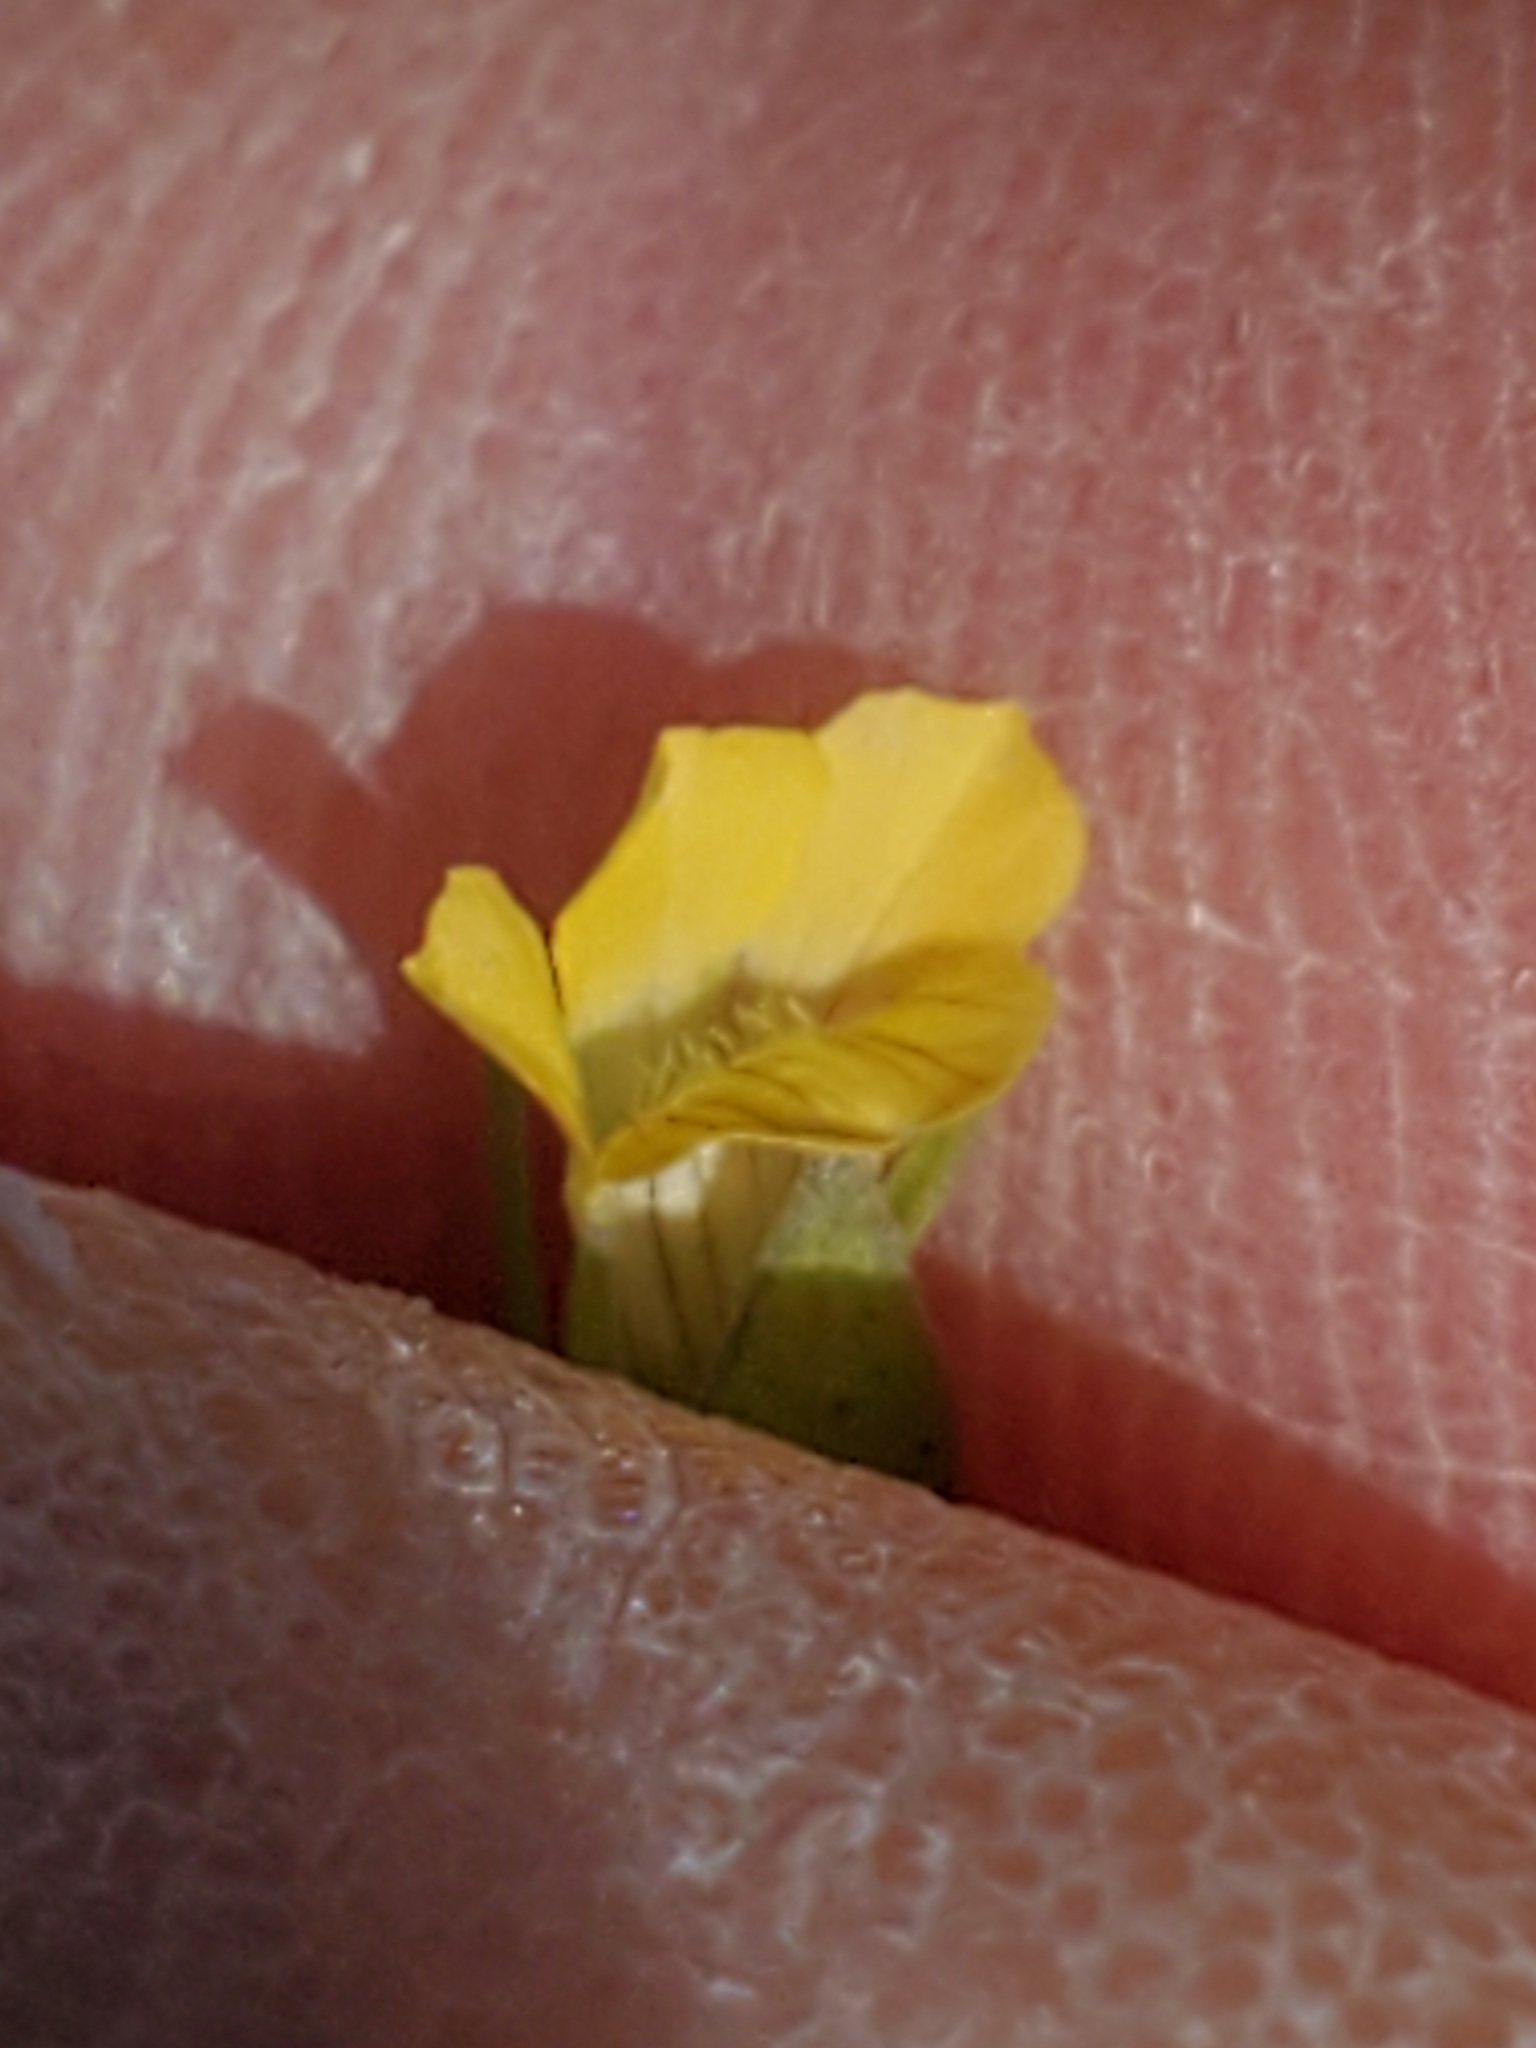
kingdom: Plantae
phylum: Tracheophyta
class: Magnoliopsida
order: Lamiales
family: Plantaginaceae
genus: Mecardonia
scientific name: Mecardonia procumbens
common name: Baby jump-up
